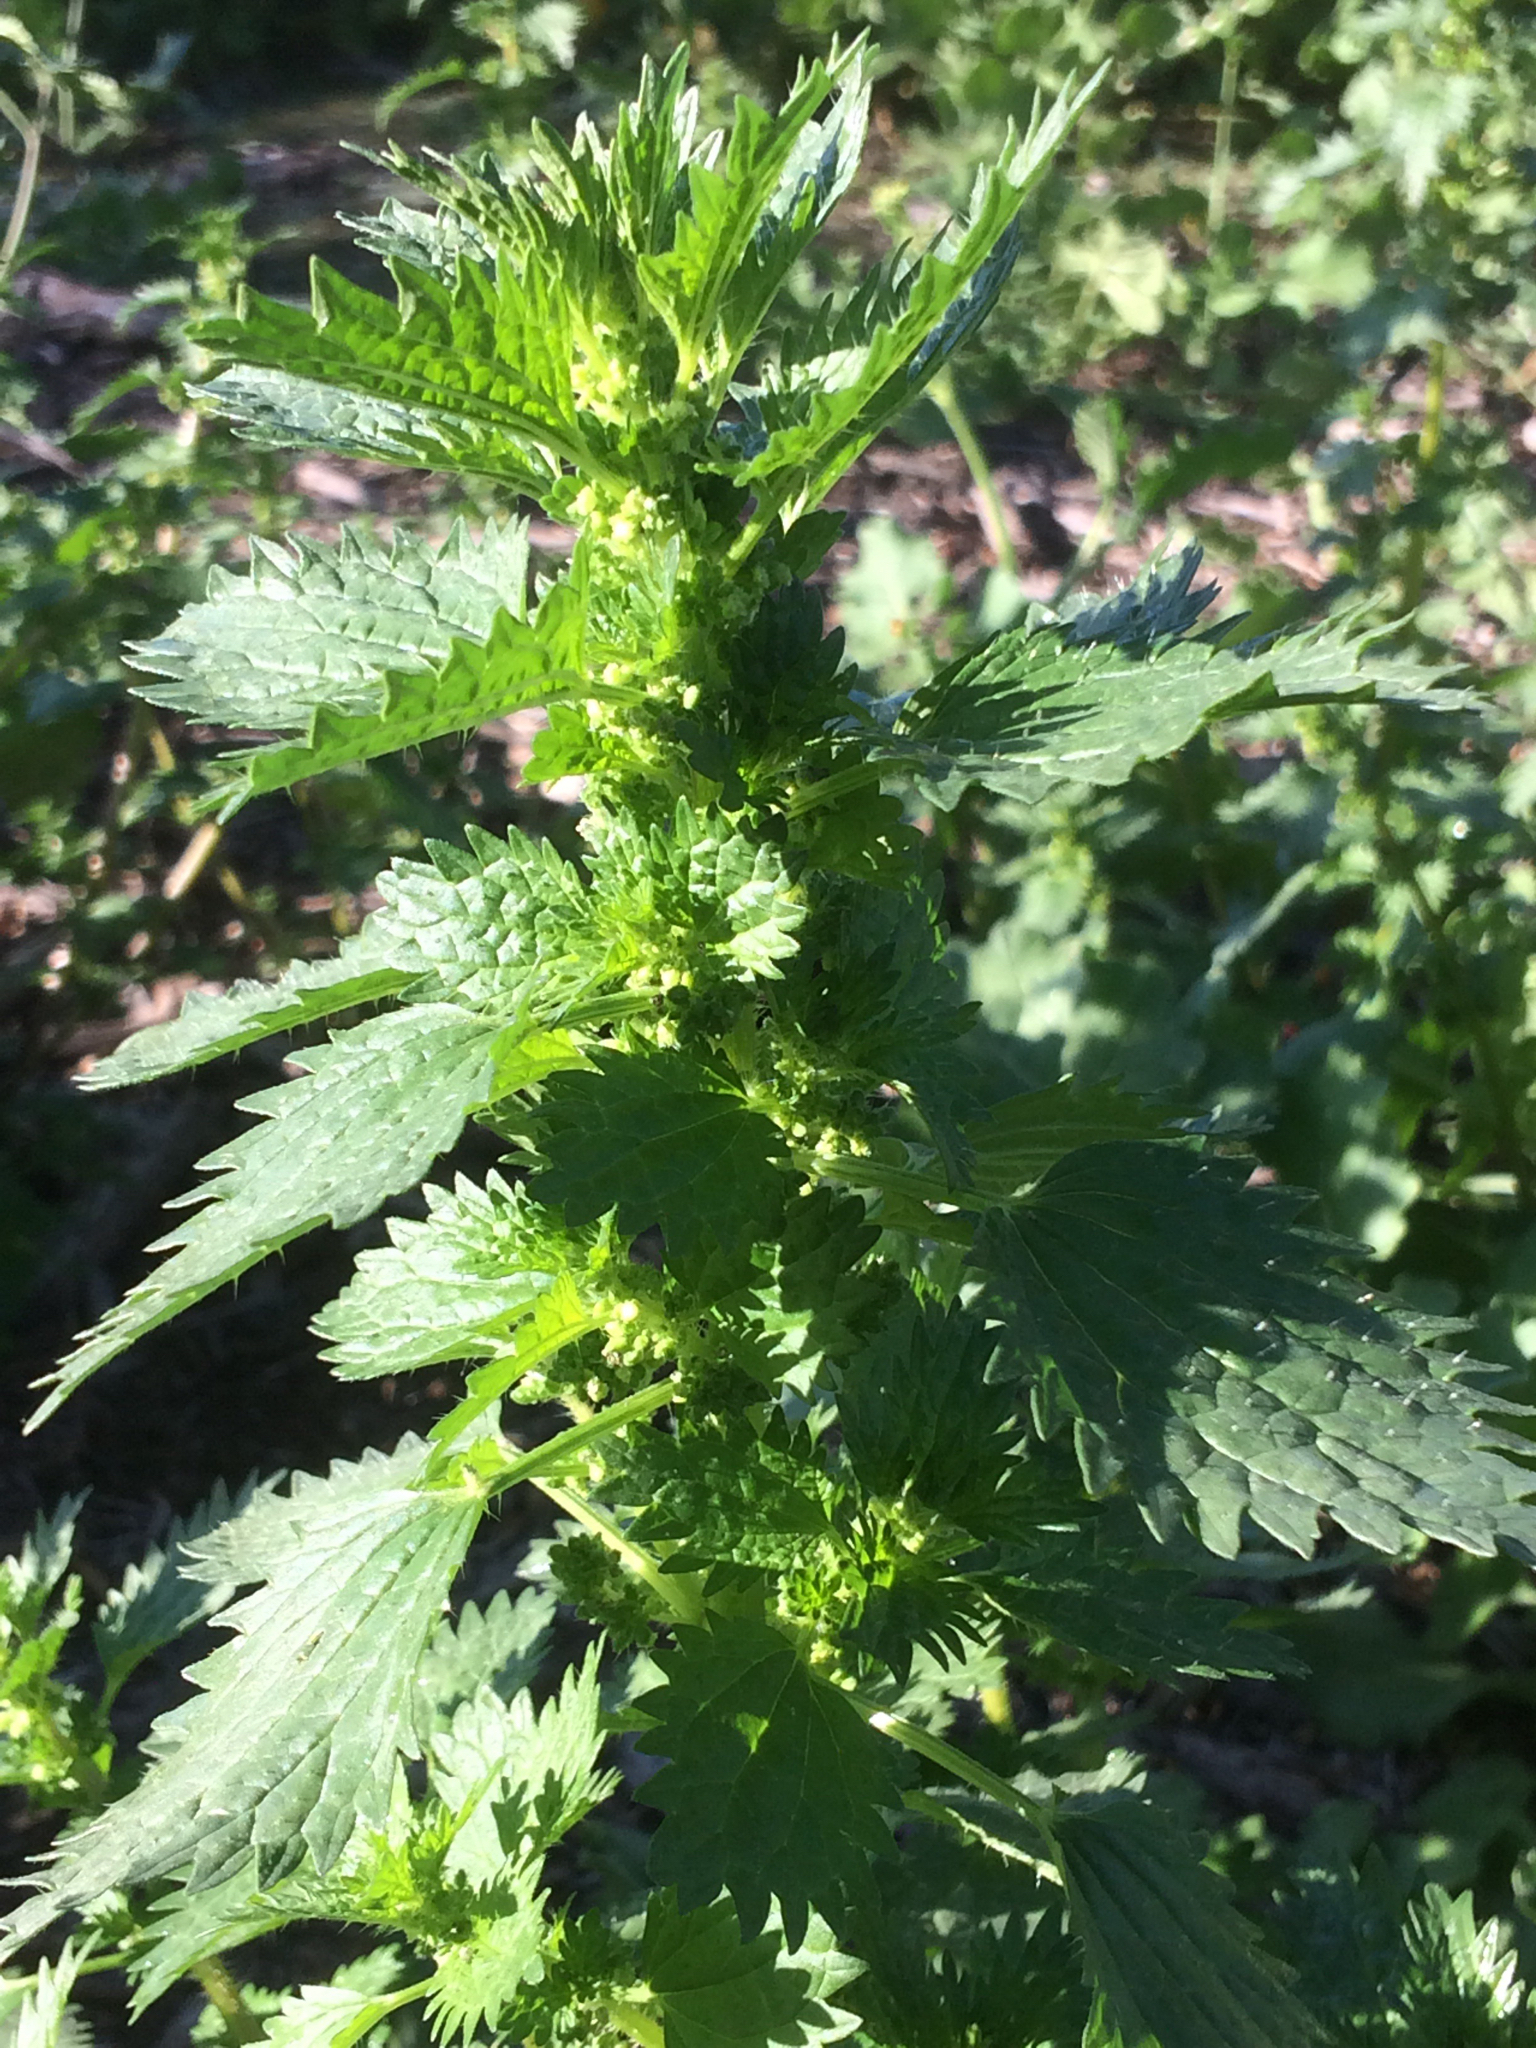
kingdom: Plantae
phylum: Tracheophyta
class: Magnoliopsida
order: Rosales
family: Urticaceae
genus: Urtica
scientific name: Urtica urens
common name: Dwarf nettle
